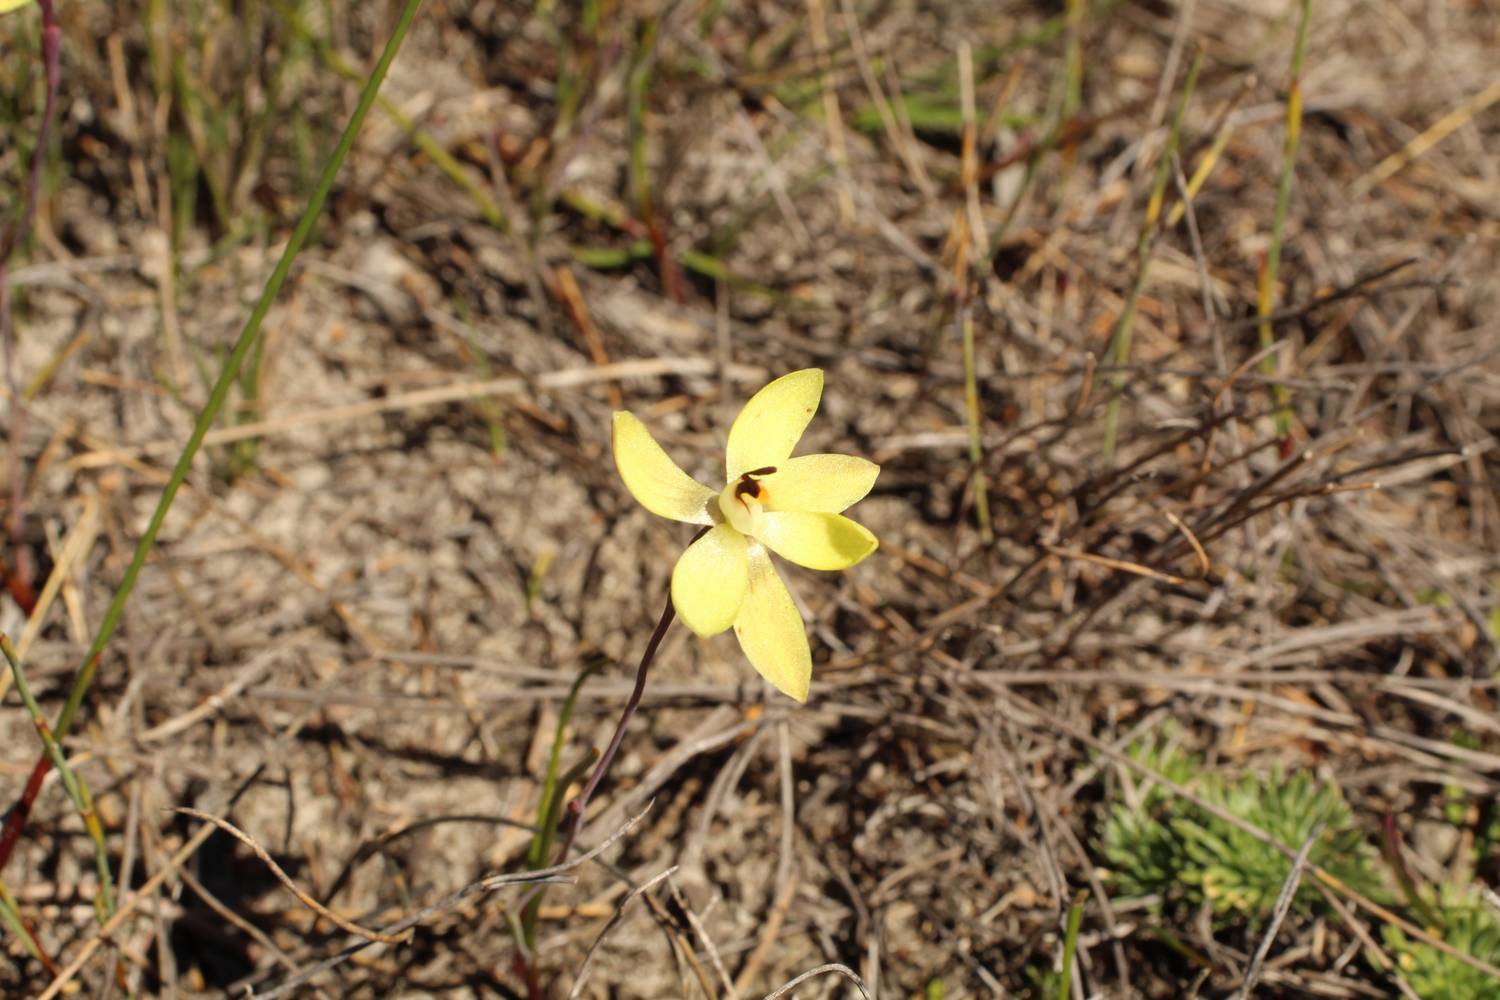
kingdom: Plantae
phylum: Tracheophyta
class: Liliopsida
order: Asparagales
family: Orchidaceae
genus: Thelymitra
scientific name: Thelymitra antennifera
